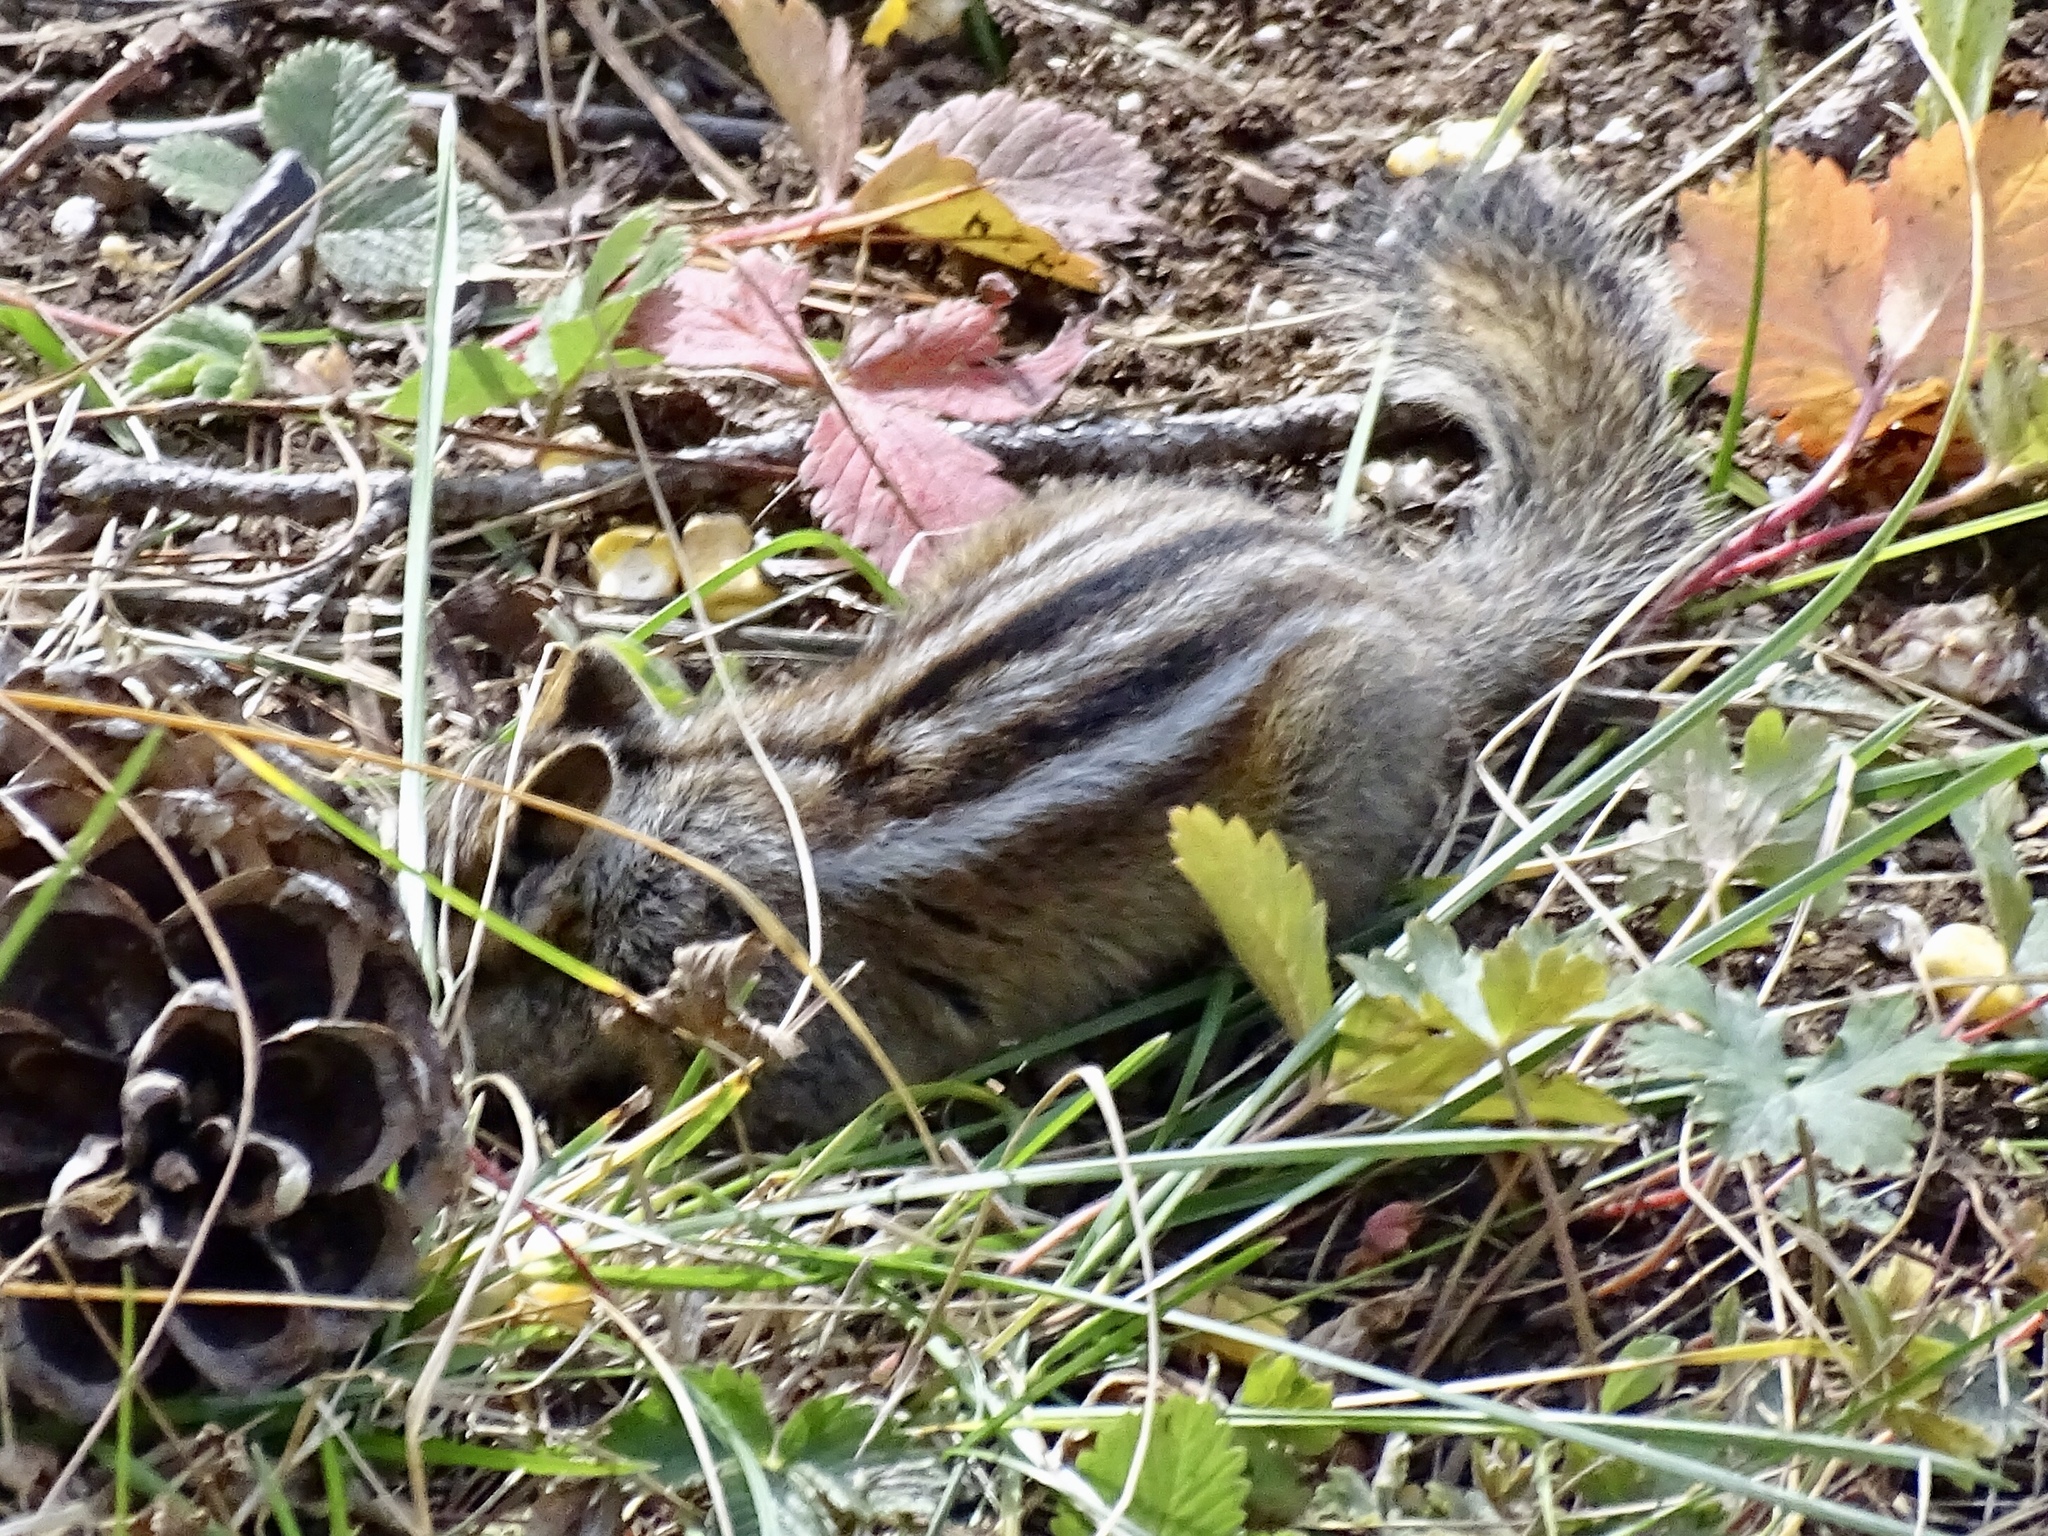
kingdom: Animalia
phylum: Chordata
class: Mammalia
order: Rodentia
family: Sciuridae
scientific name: Sciuridae
